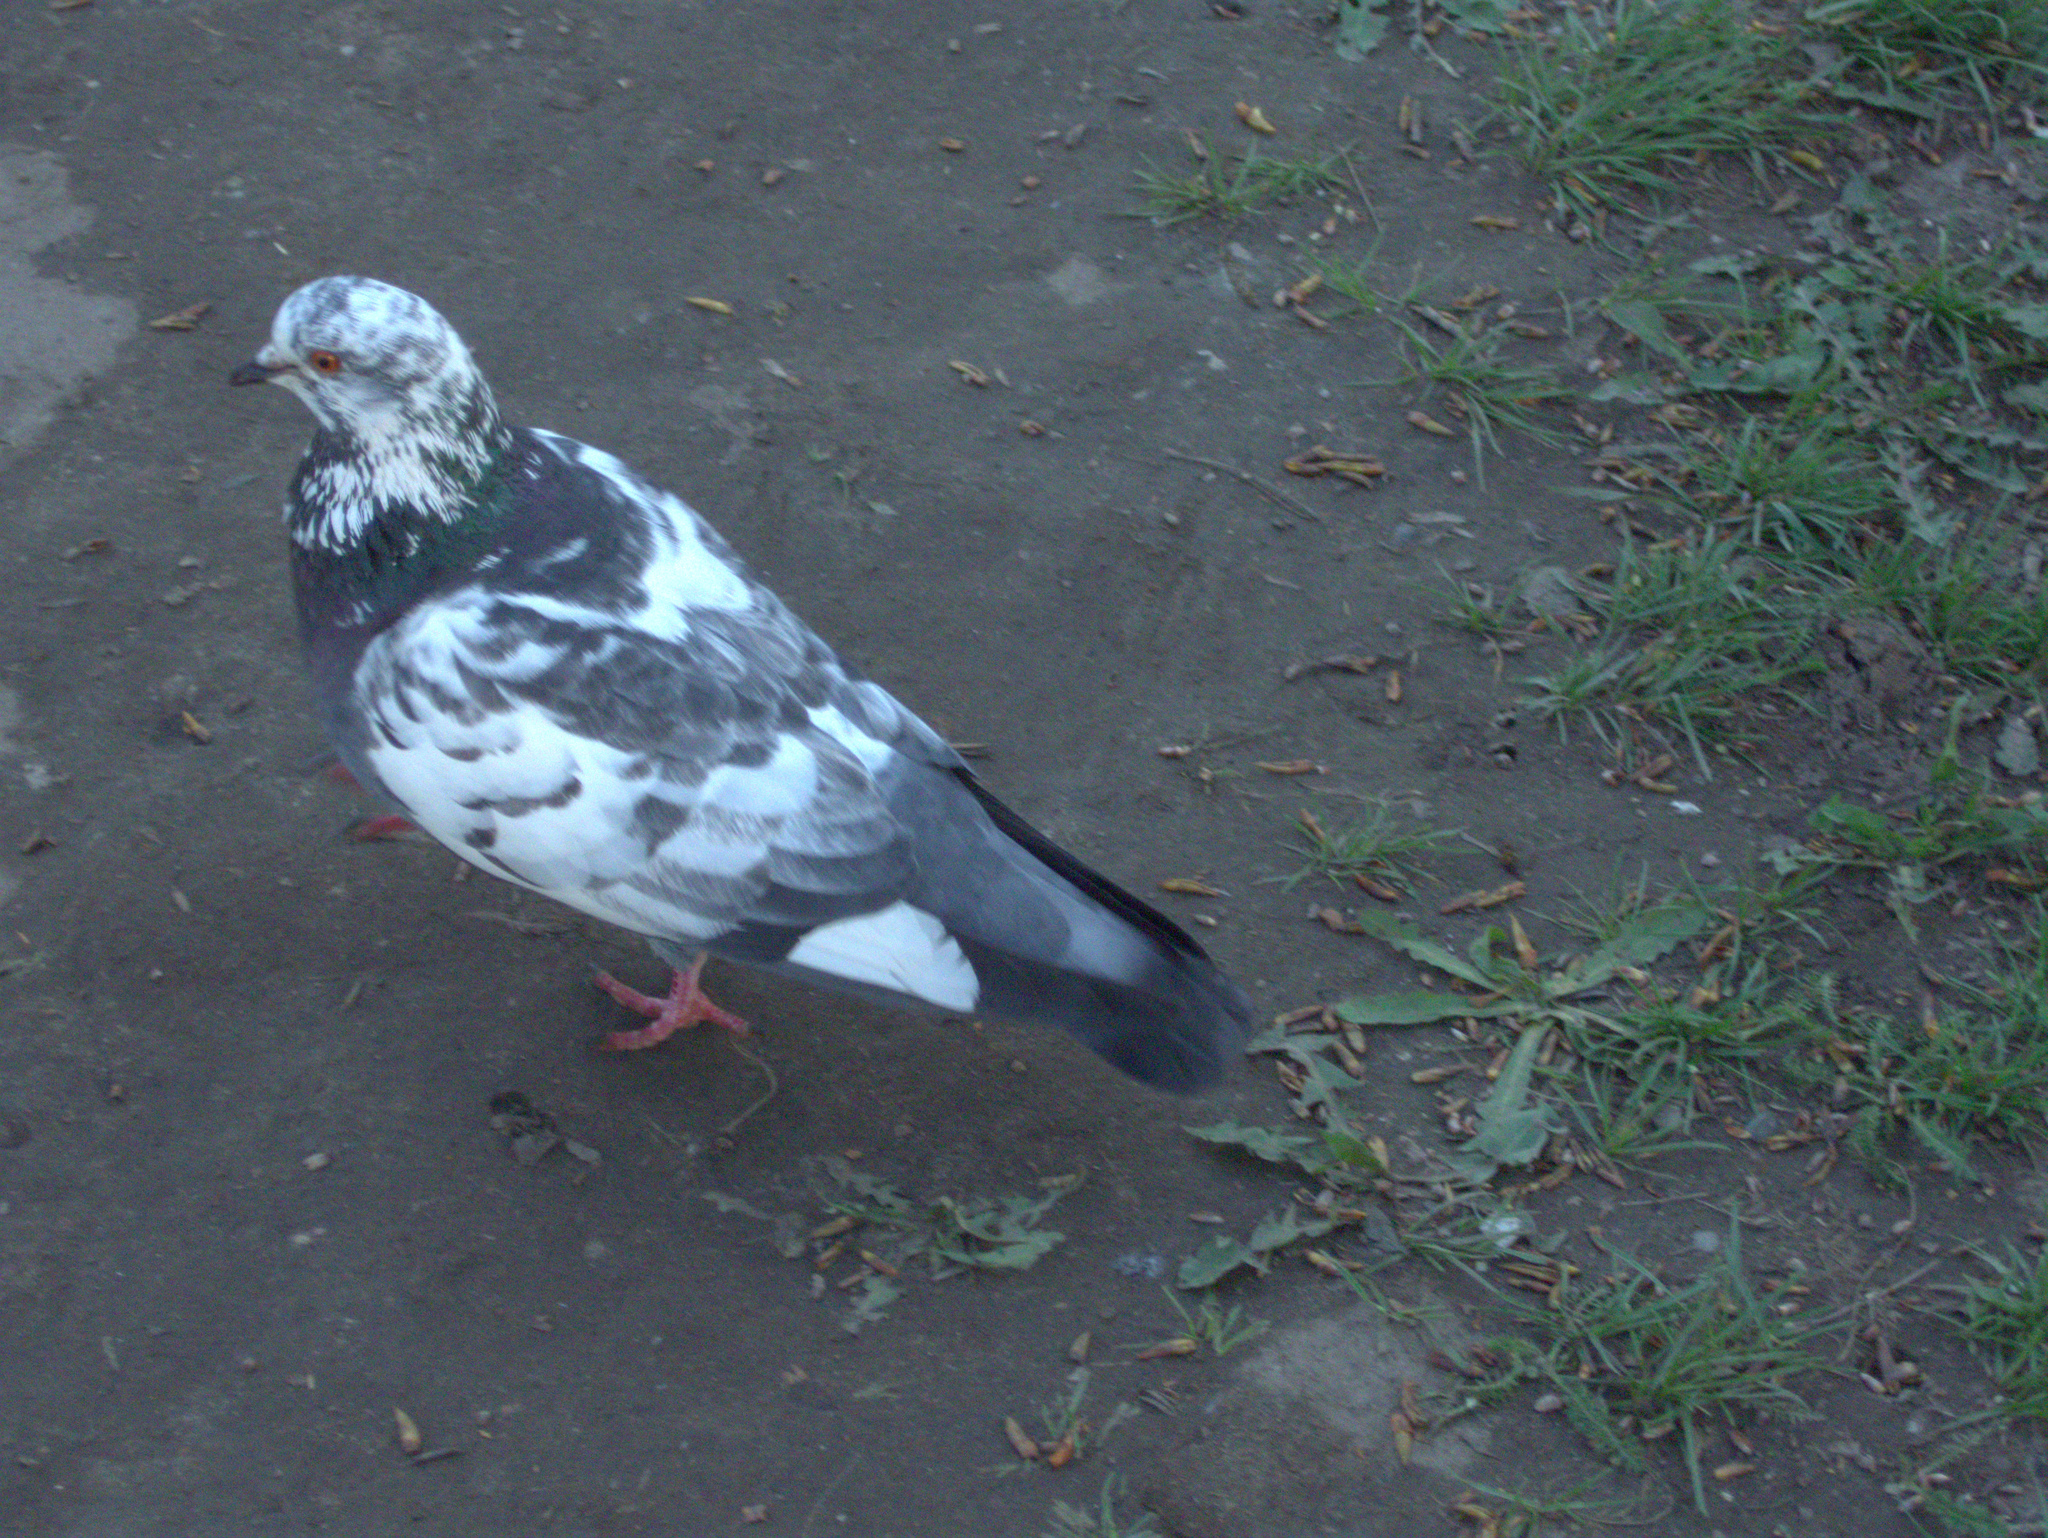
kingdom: Animalia
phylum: Chordata
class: Aves
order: Columbiformes
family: Columbidae
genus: Columba
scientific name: Columba livia
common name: Rock pigeon
